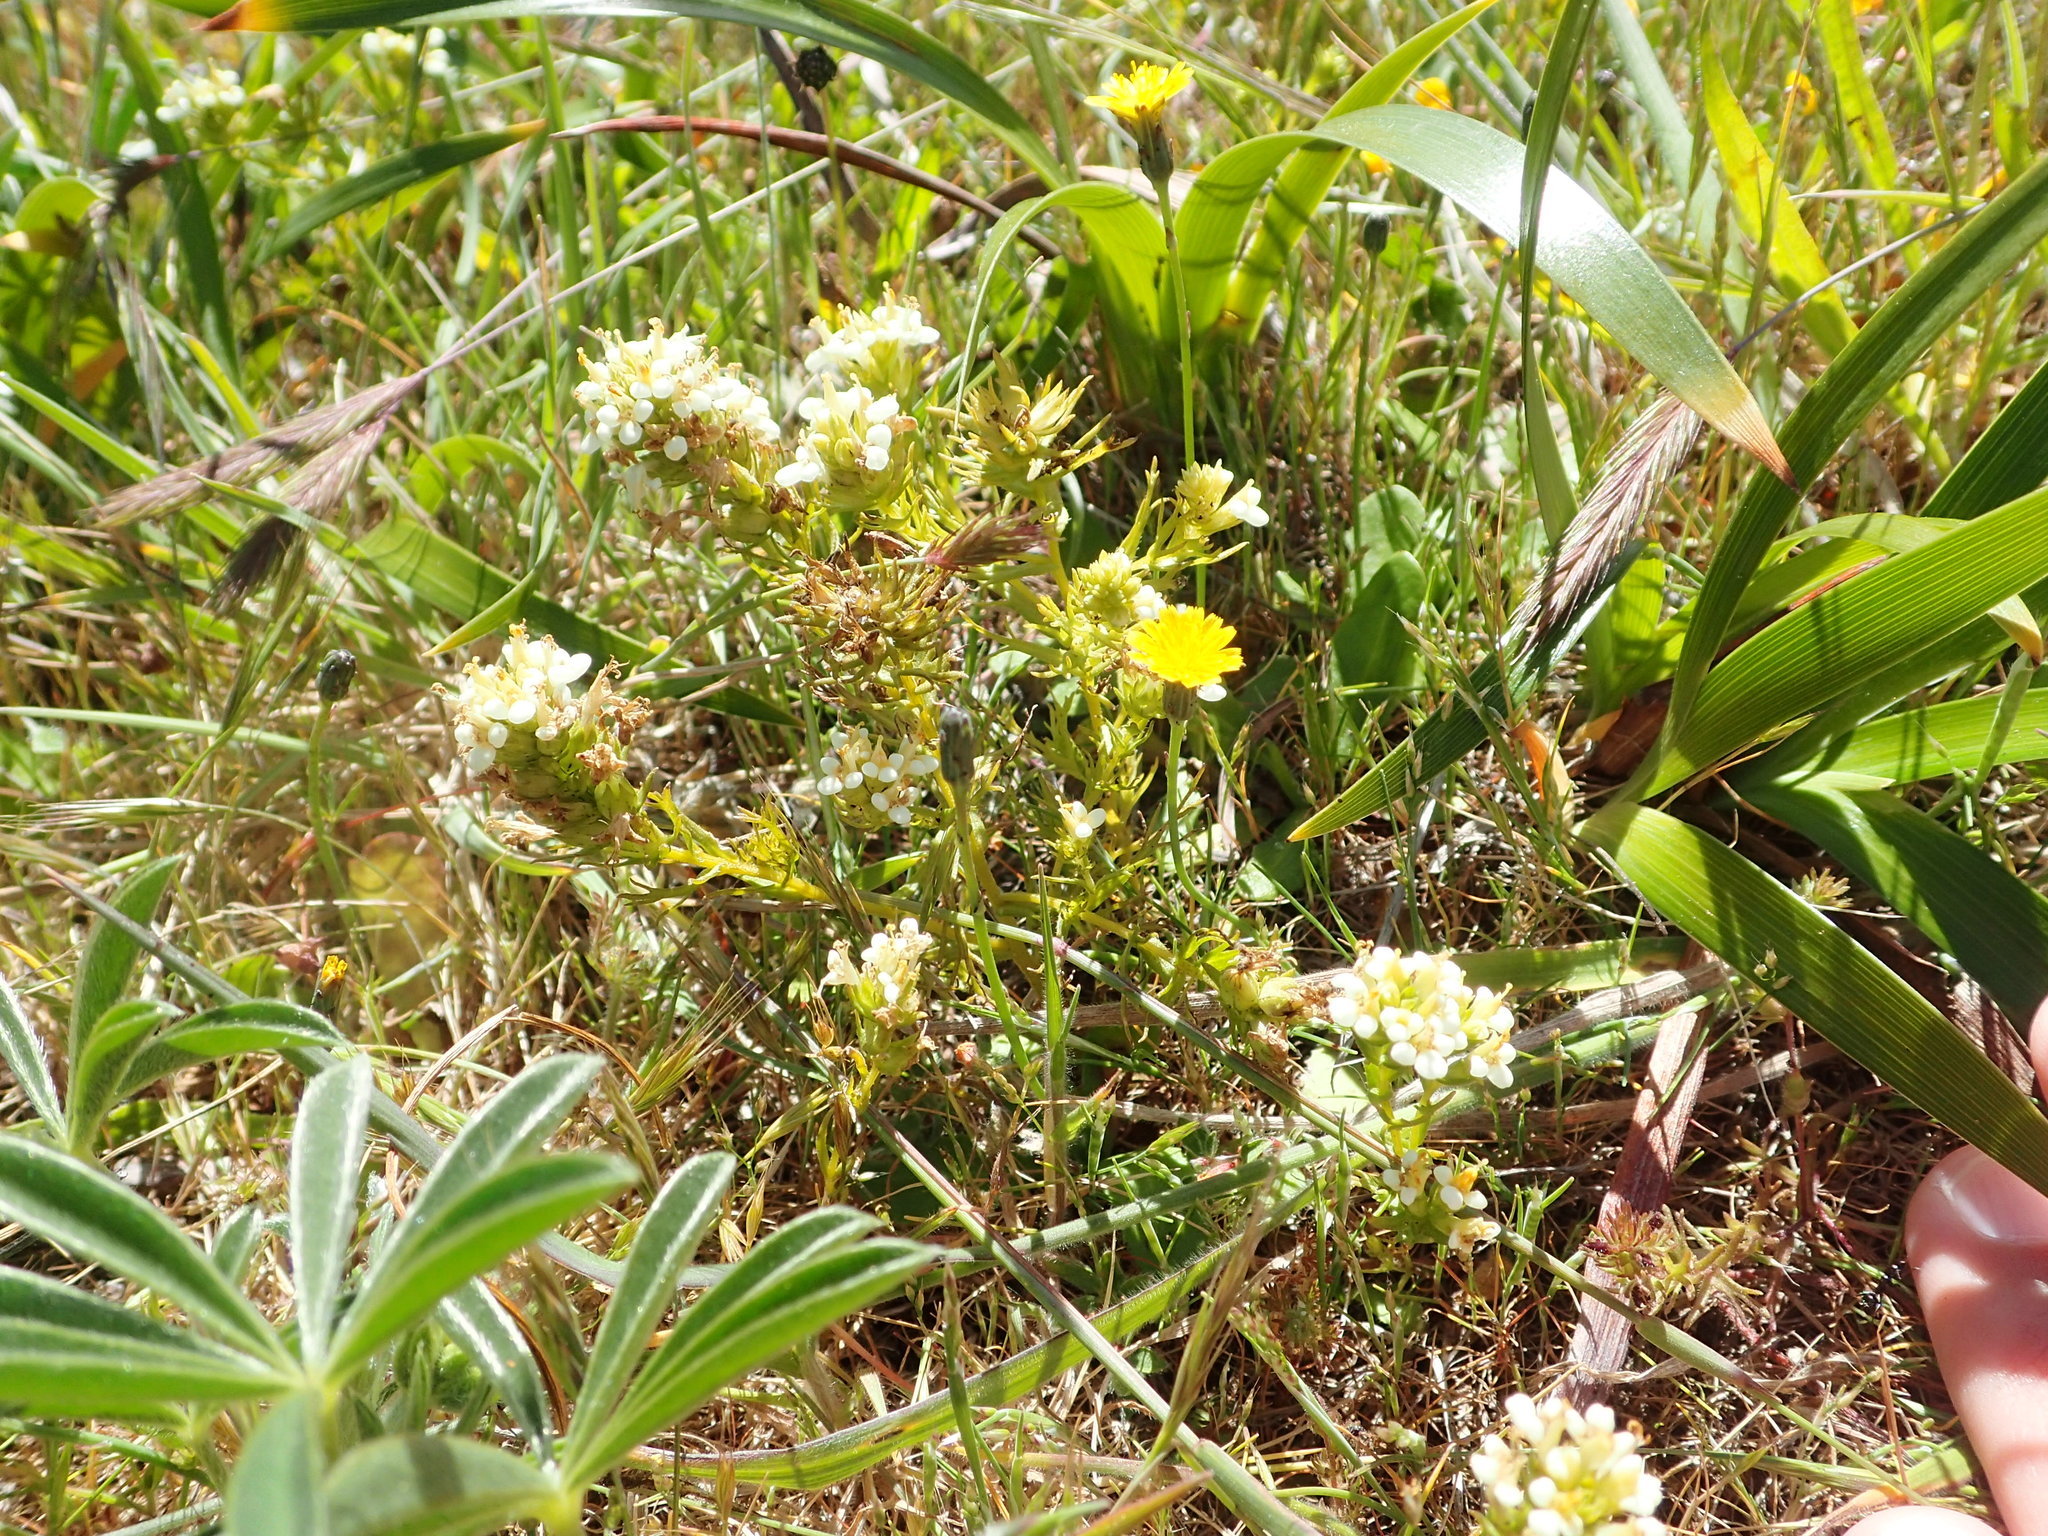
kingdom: Plantae
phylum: Tracheophyta
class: Magnoliopsida
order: Lamiales
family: Orobanchaceae
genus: Triphysaria
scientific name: Triphysaria floribunda
